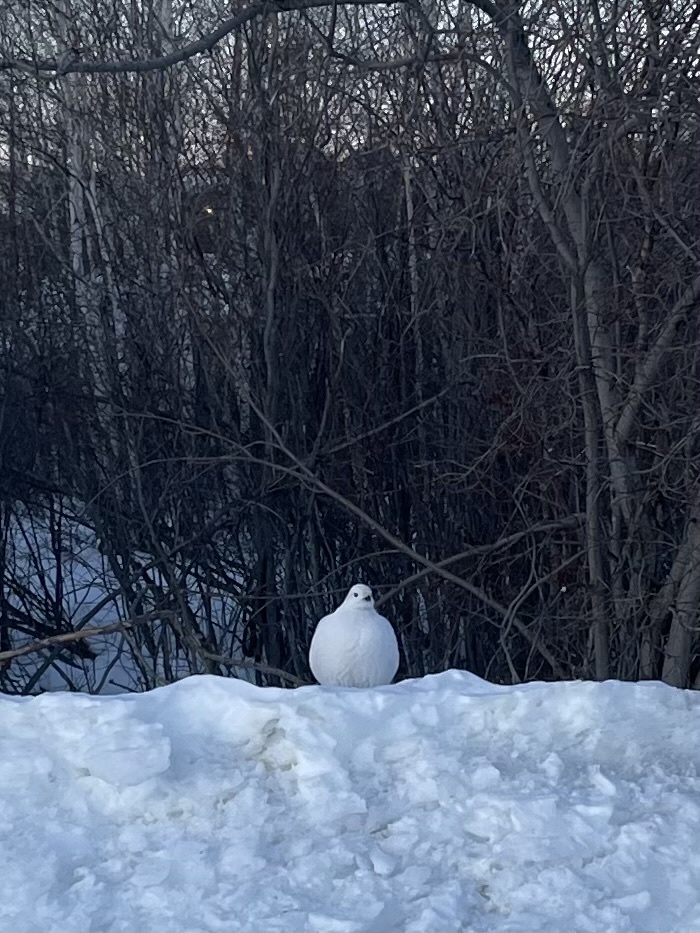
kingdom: Animalia
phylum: Chordata
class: Aves
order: Galliformes
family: Phasianidae
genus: Lagopus
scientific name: Lagopus lagopus
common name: Willow ptarmigan
